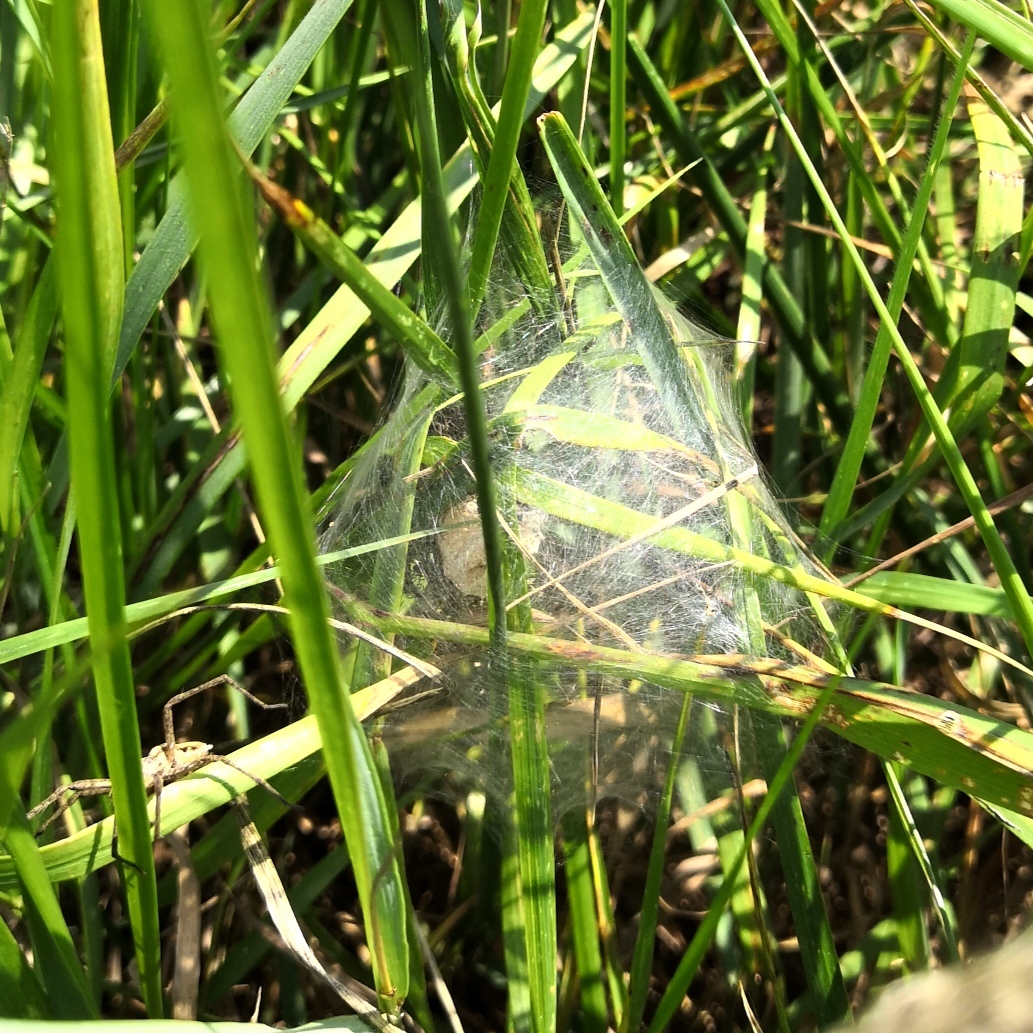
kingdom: Animalia
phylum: Arthropoda
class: Arachnida
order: Araneae
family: Pisauridae
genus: Pisaura
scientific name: Pisaura mirabilis
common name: Tent spider
